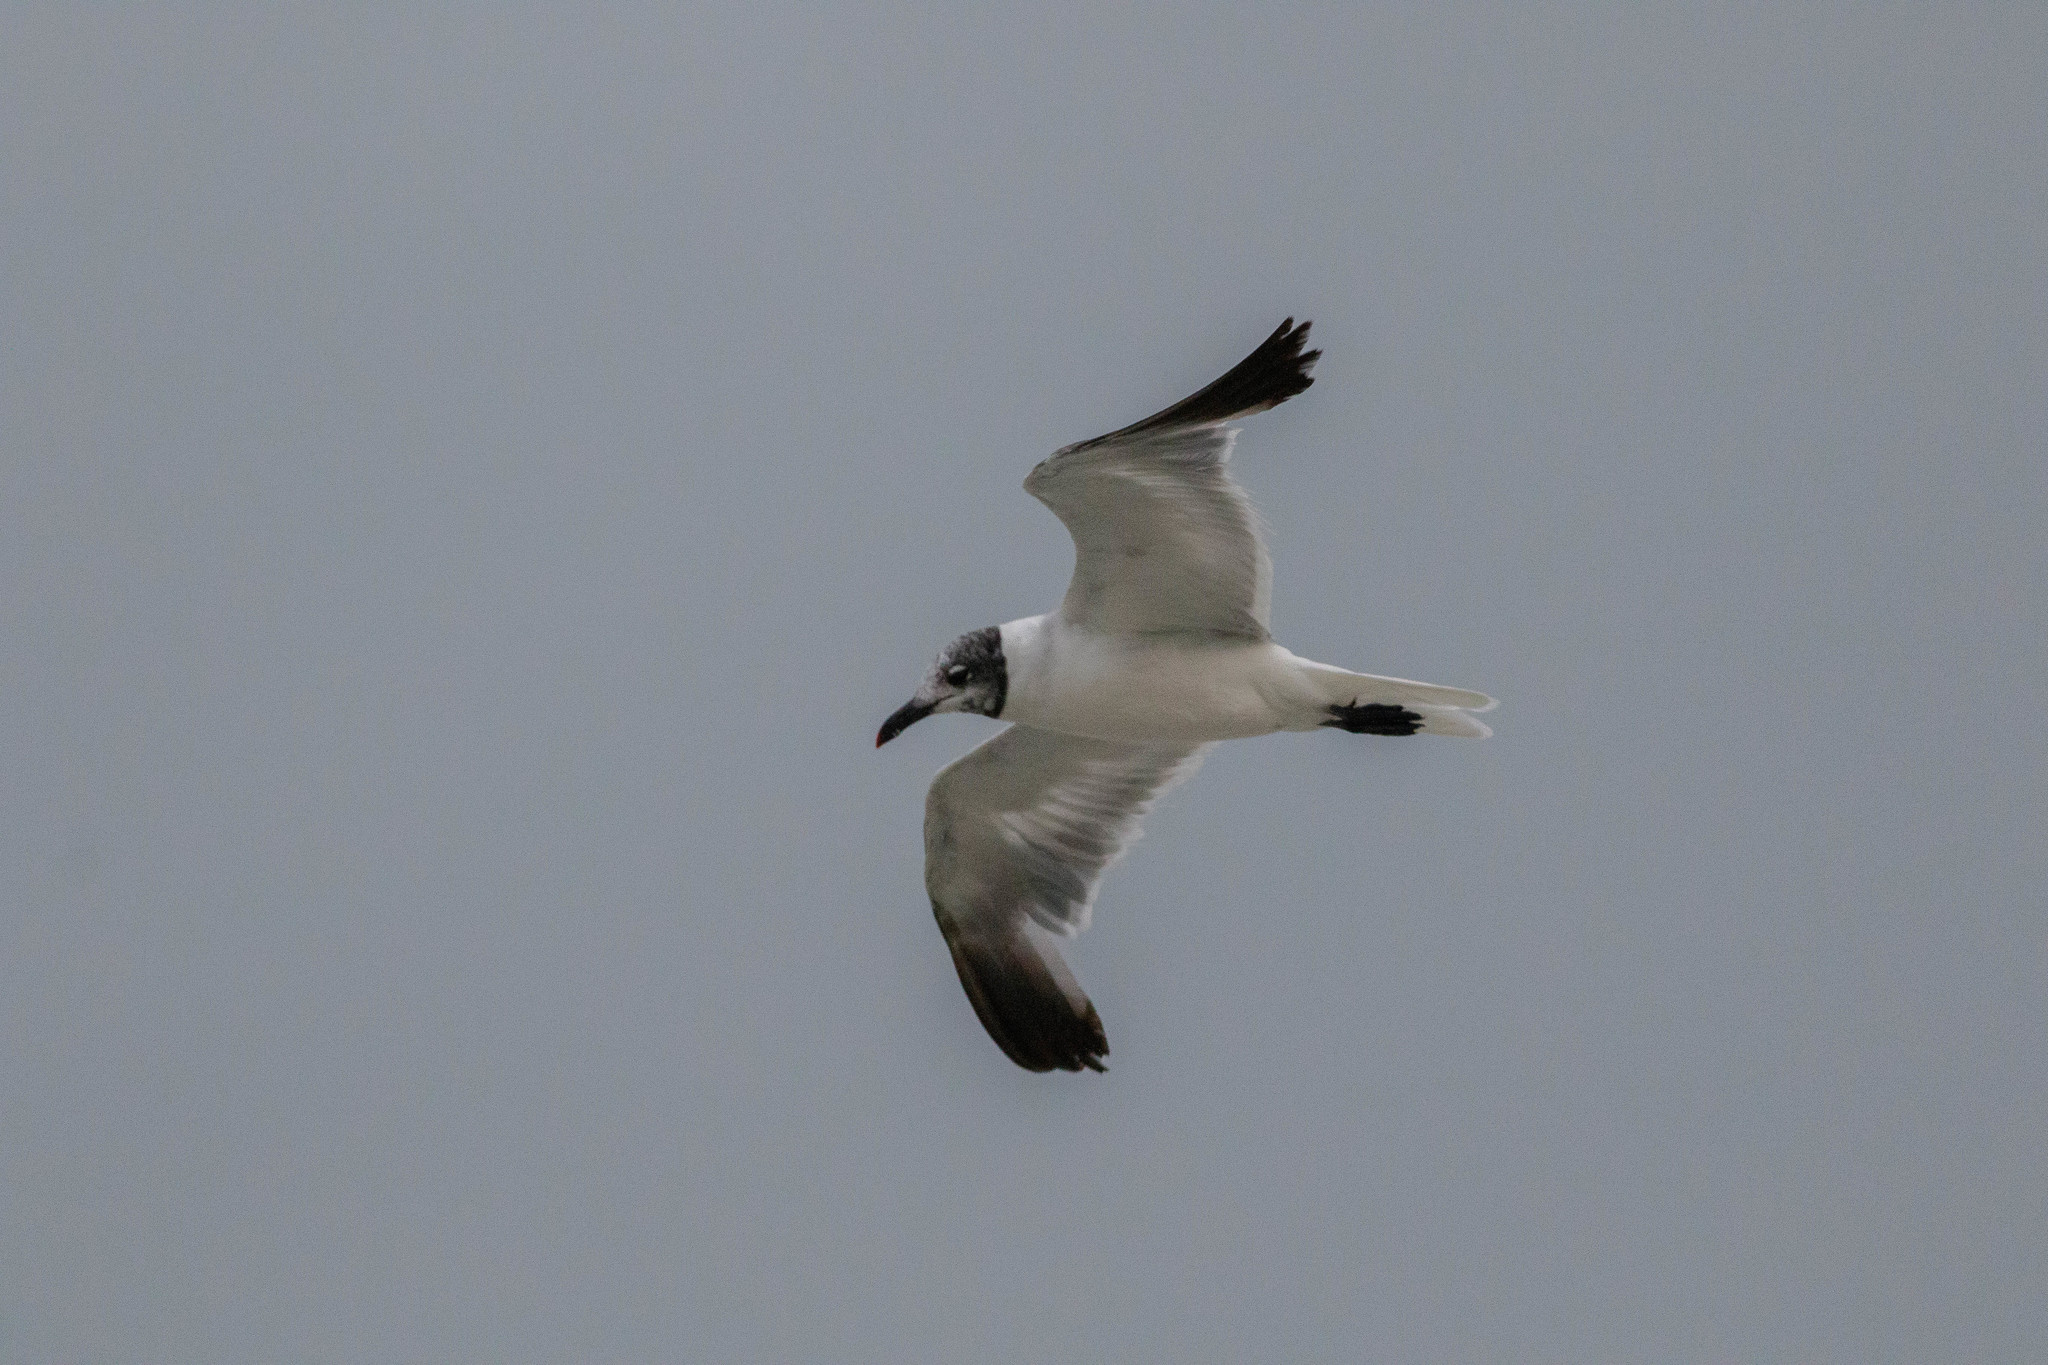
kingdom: Animalia
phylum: Chordata
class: Aves
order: Charadriiformes
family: Laridae
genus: Leucophaeus
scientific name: Leucophaeus atricilla
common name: Laughing gull
